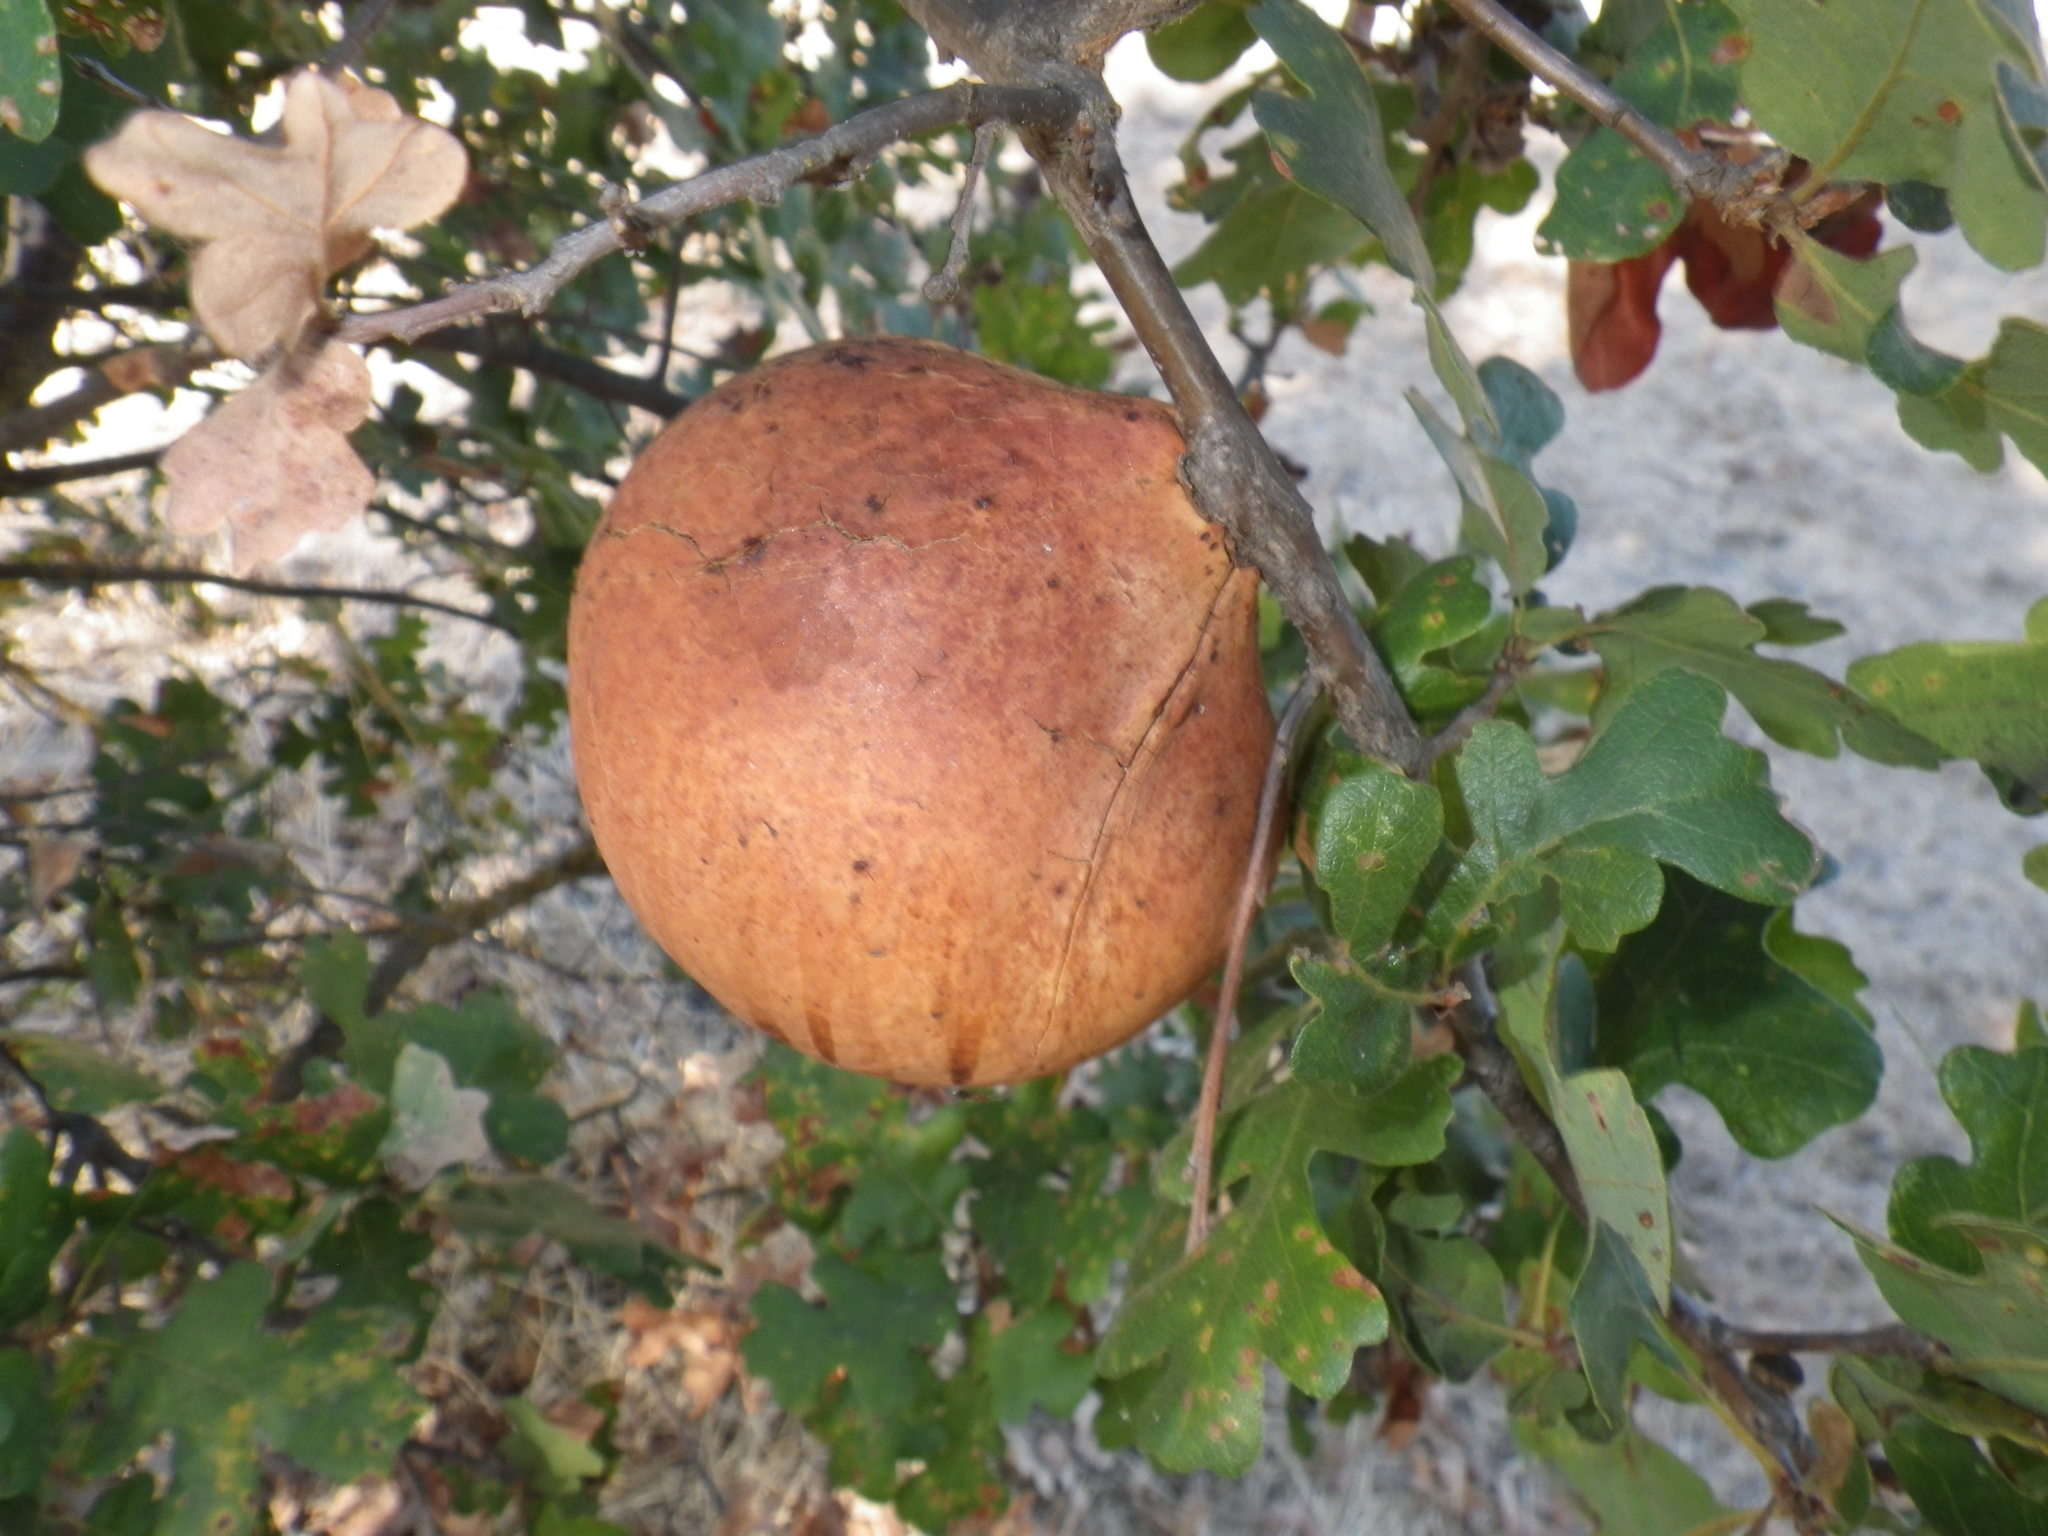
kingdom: Animalia
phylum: Arthropoda
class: Insecta
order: Hymenoptera
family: Cynipidae
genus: Andricus
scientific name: Andricus quercuscalifornicus
